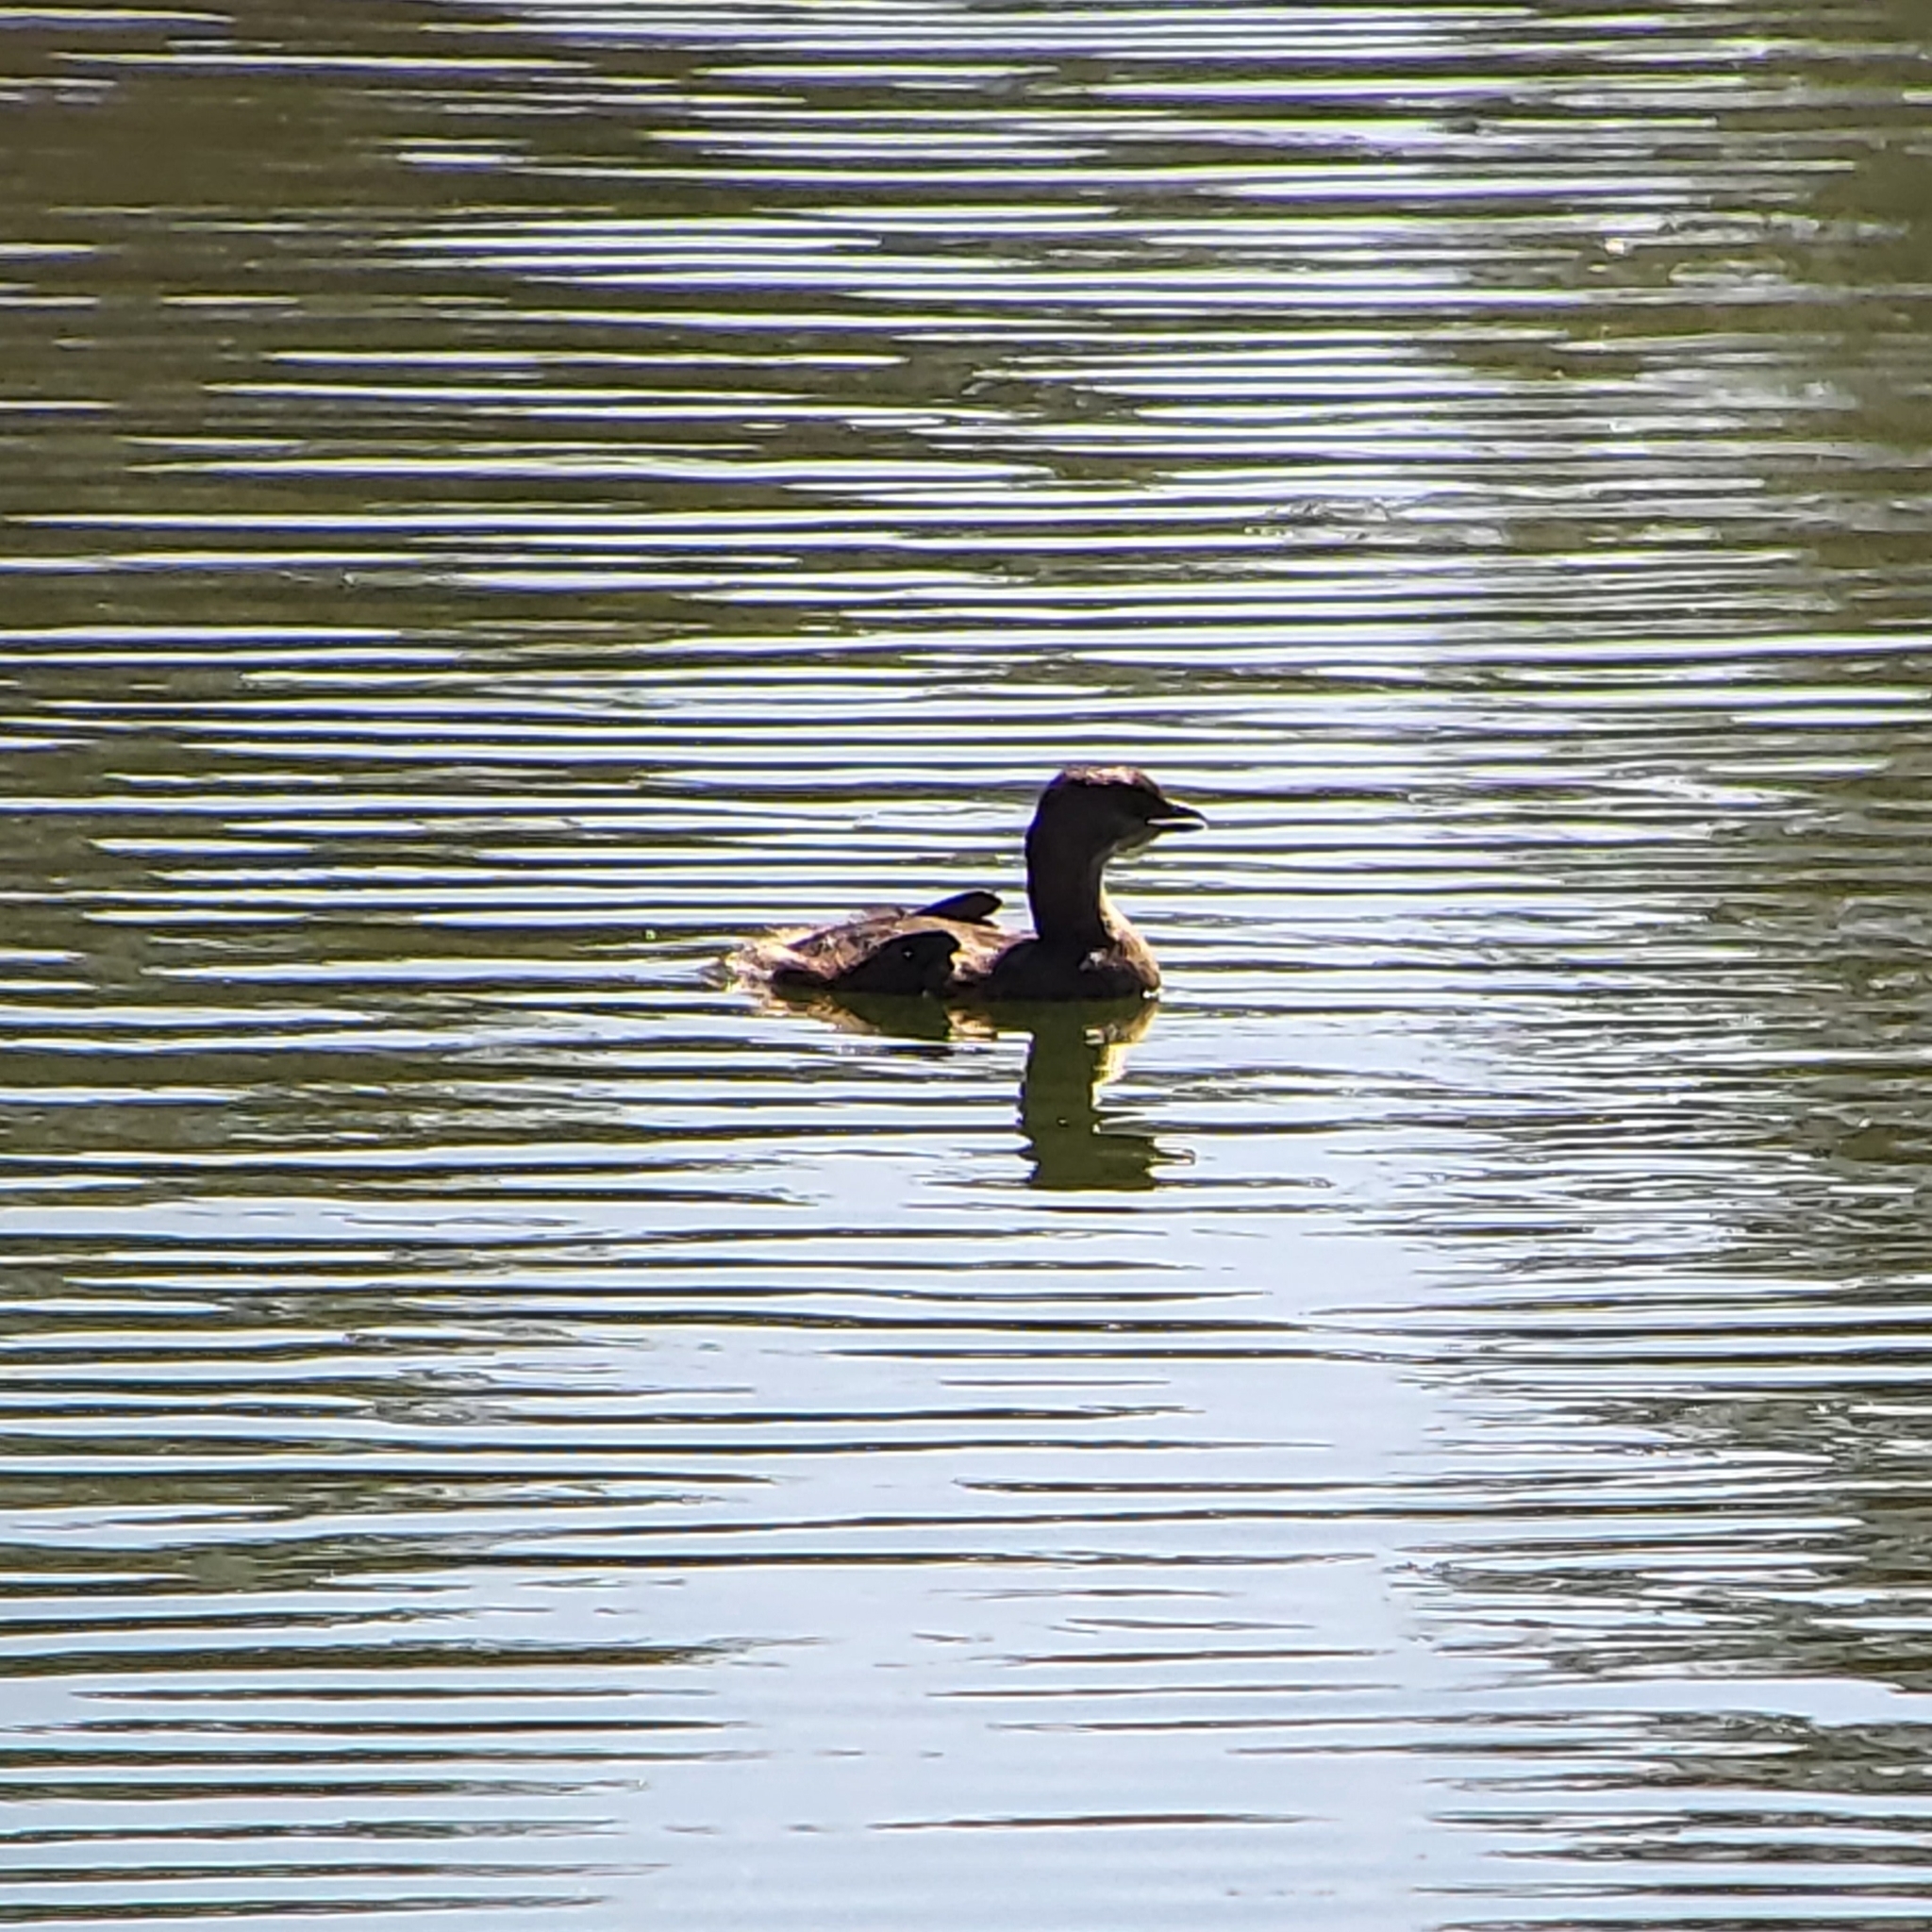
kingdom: Animalia
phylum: Chordata
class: Aves
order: Podicipediformes
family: Podicipedidae
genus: Podilymbus
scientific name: Podilymbus podiceps
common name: Pied-billed grebe
